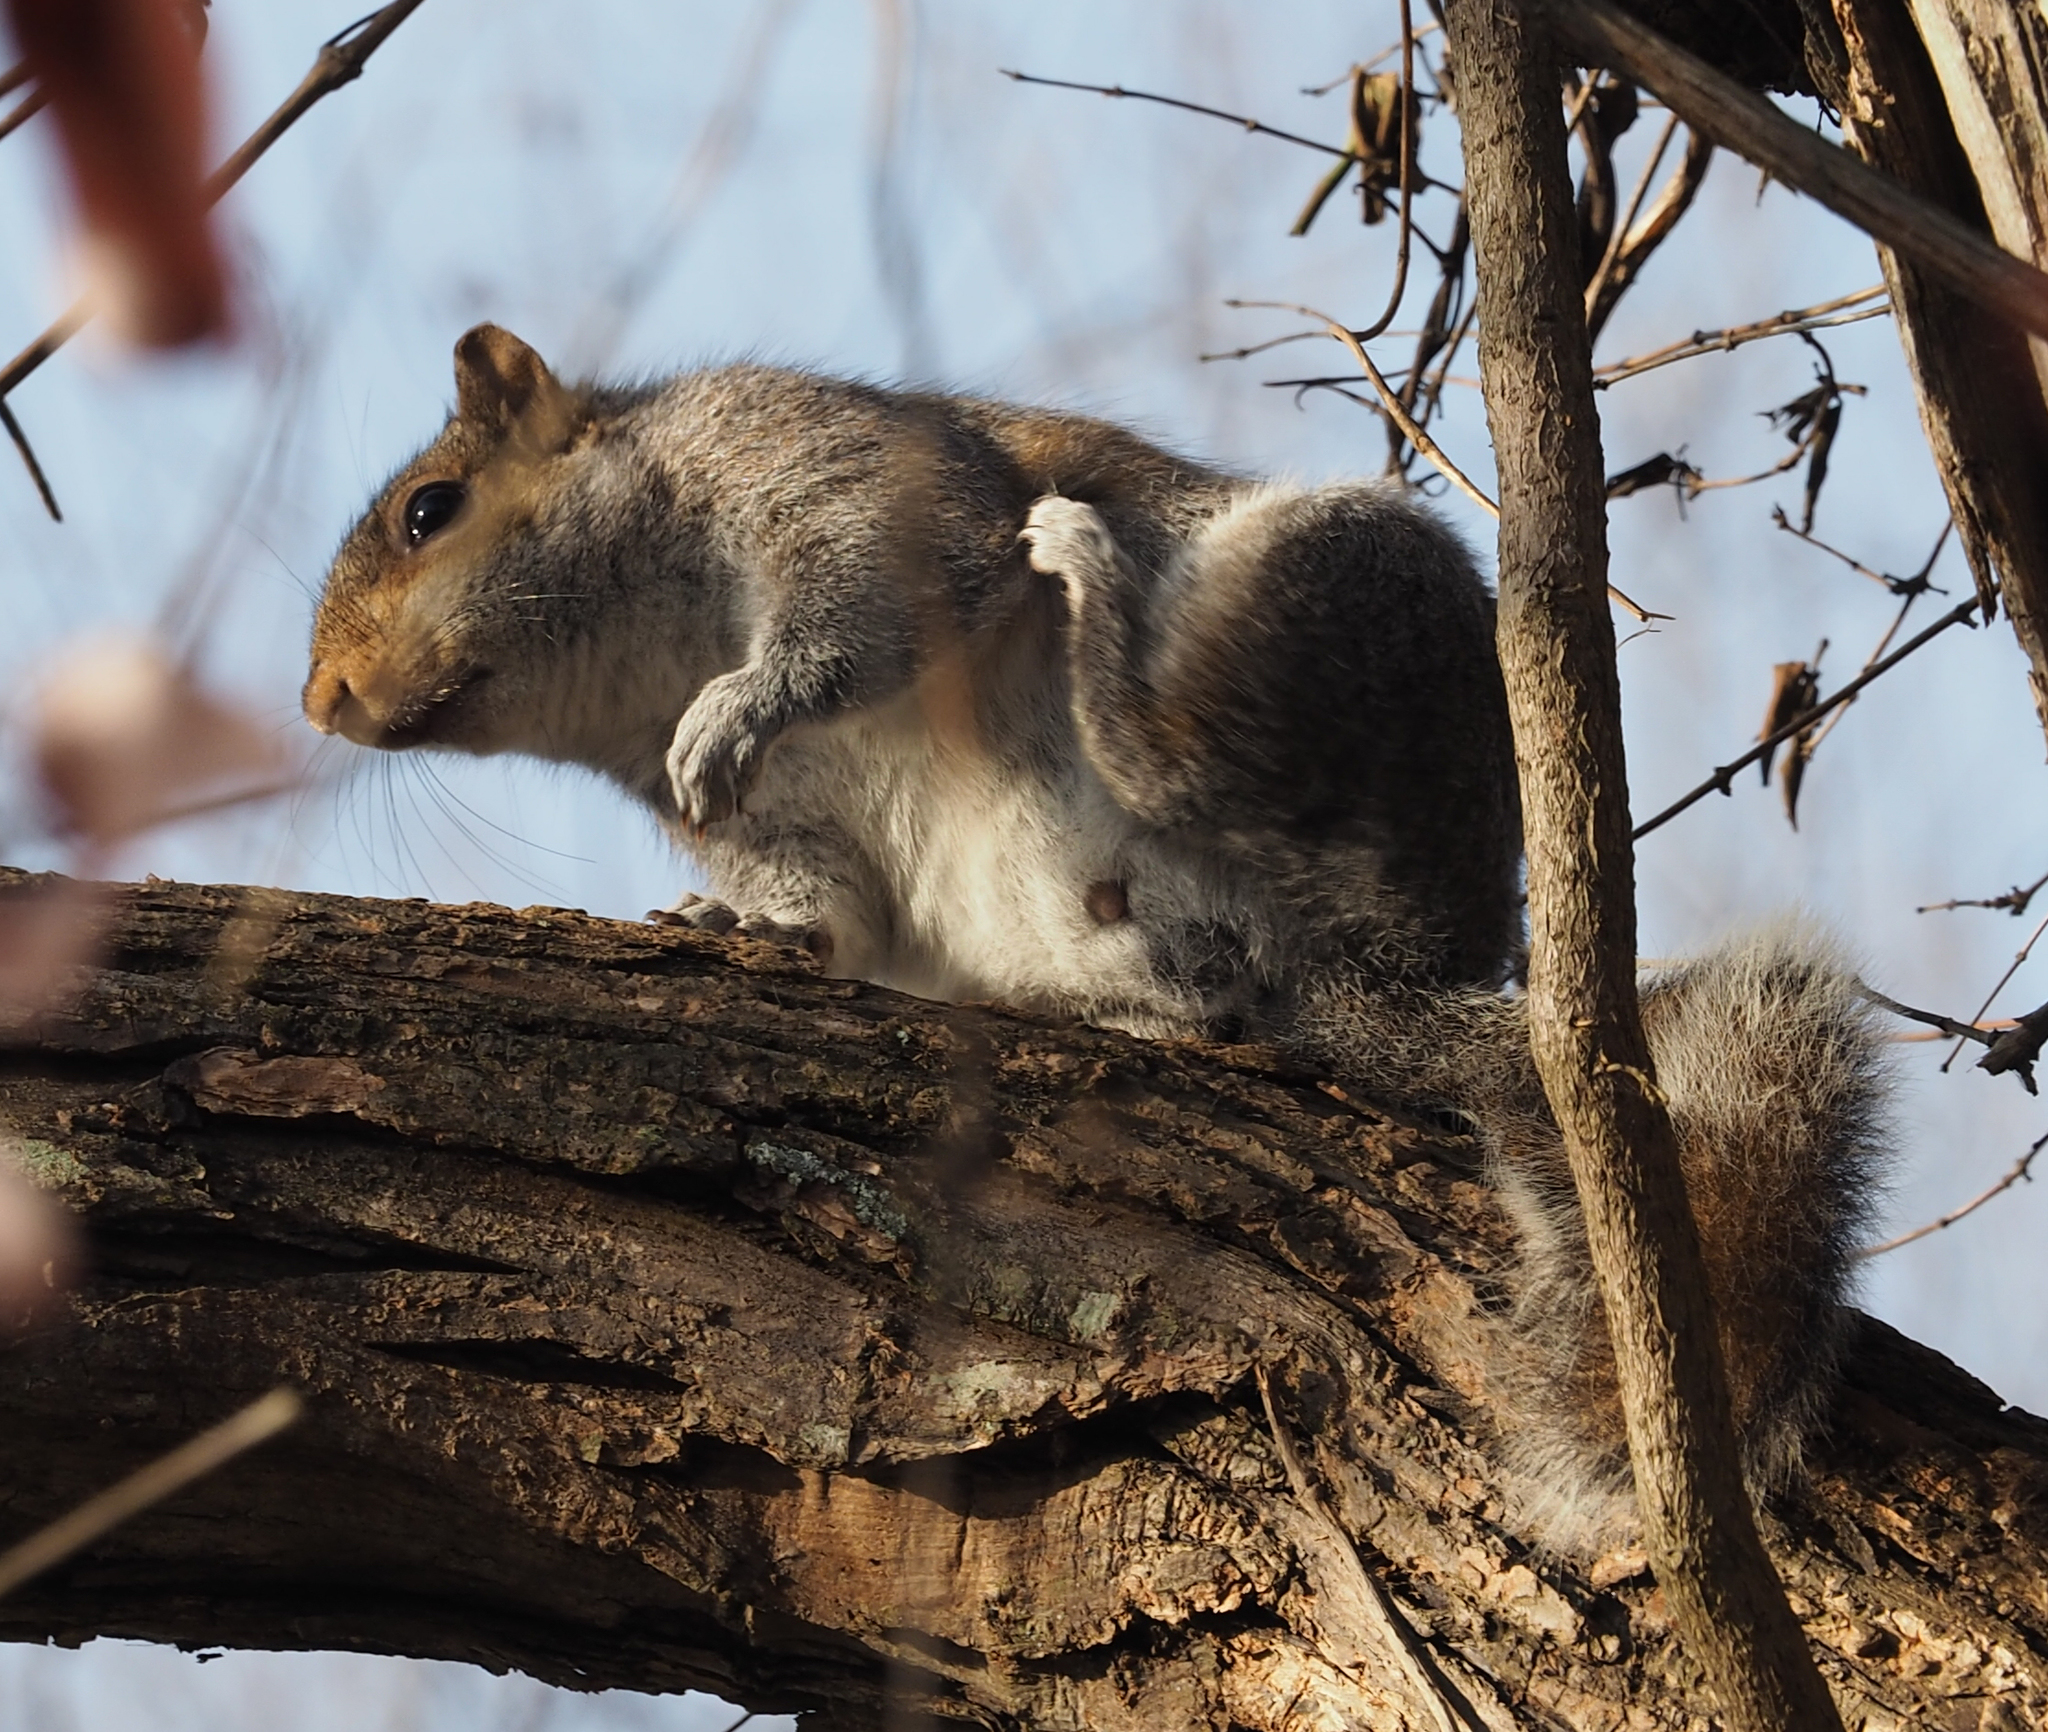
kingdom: Animalia
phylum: Chordata
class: Mammalia
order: Rodentia
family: Sciuridae
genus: Sciurus
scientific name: Sciurus carolinensis
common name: Eastern gray squirrel
